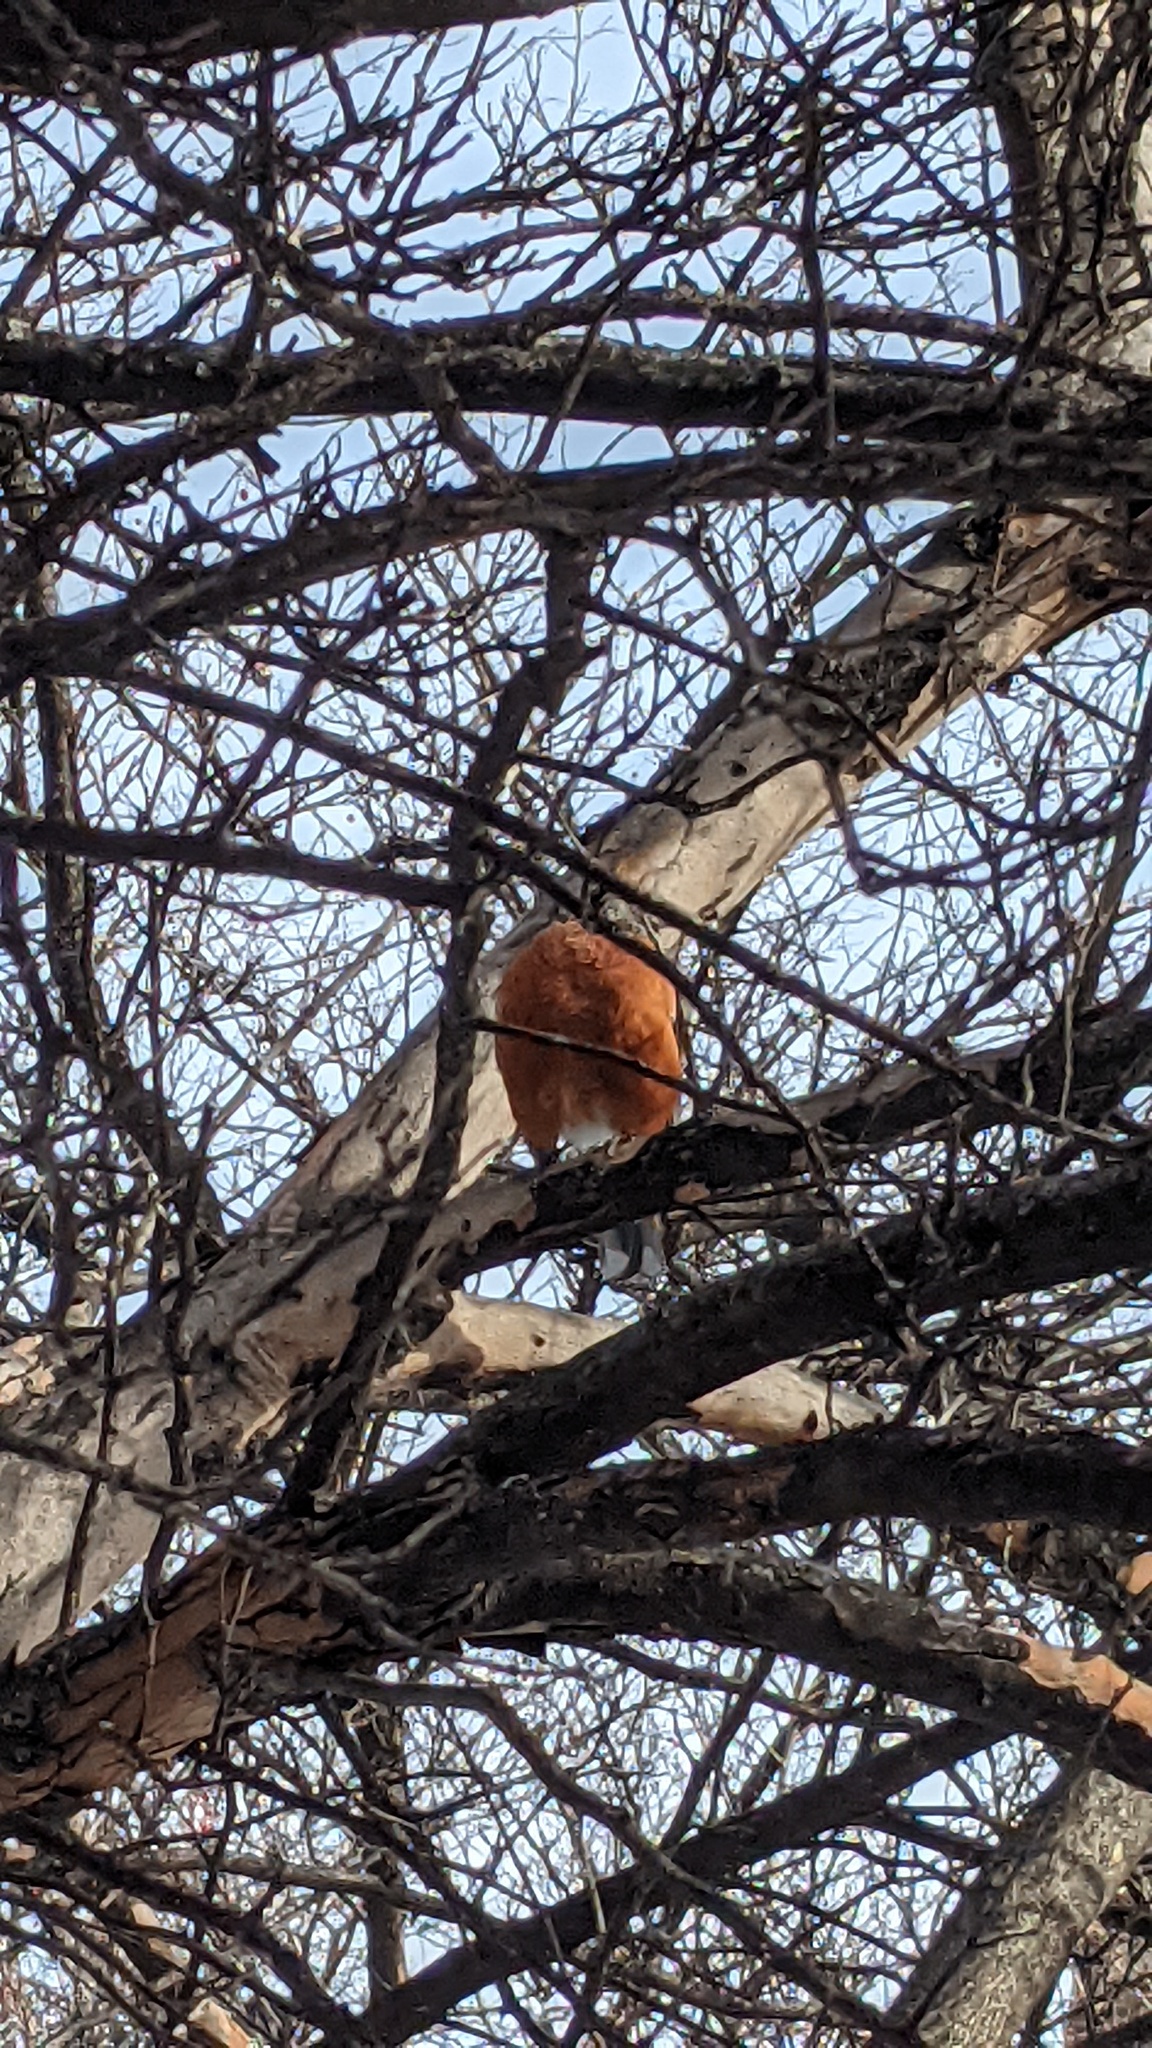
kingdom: Animalia
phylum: Chordata
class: Aves
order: Passeriformes
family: Turdidae
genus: Turdus
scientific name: Turdus migratorius
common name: American robin
